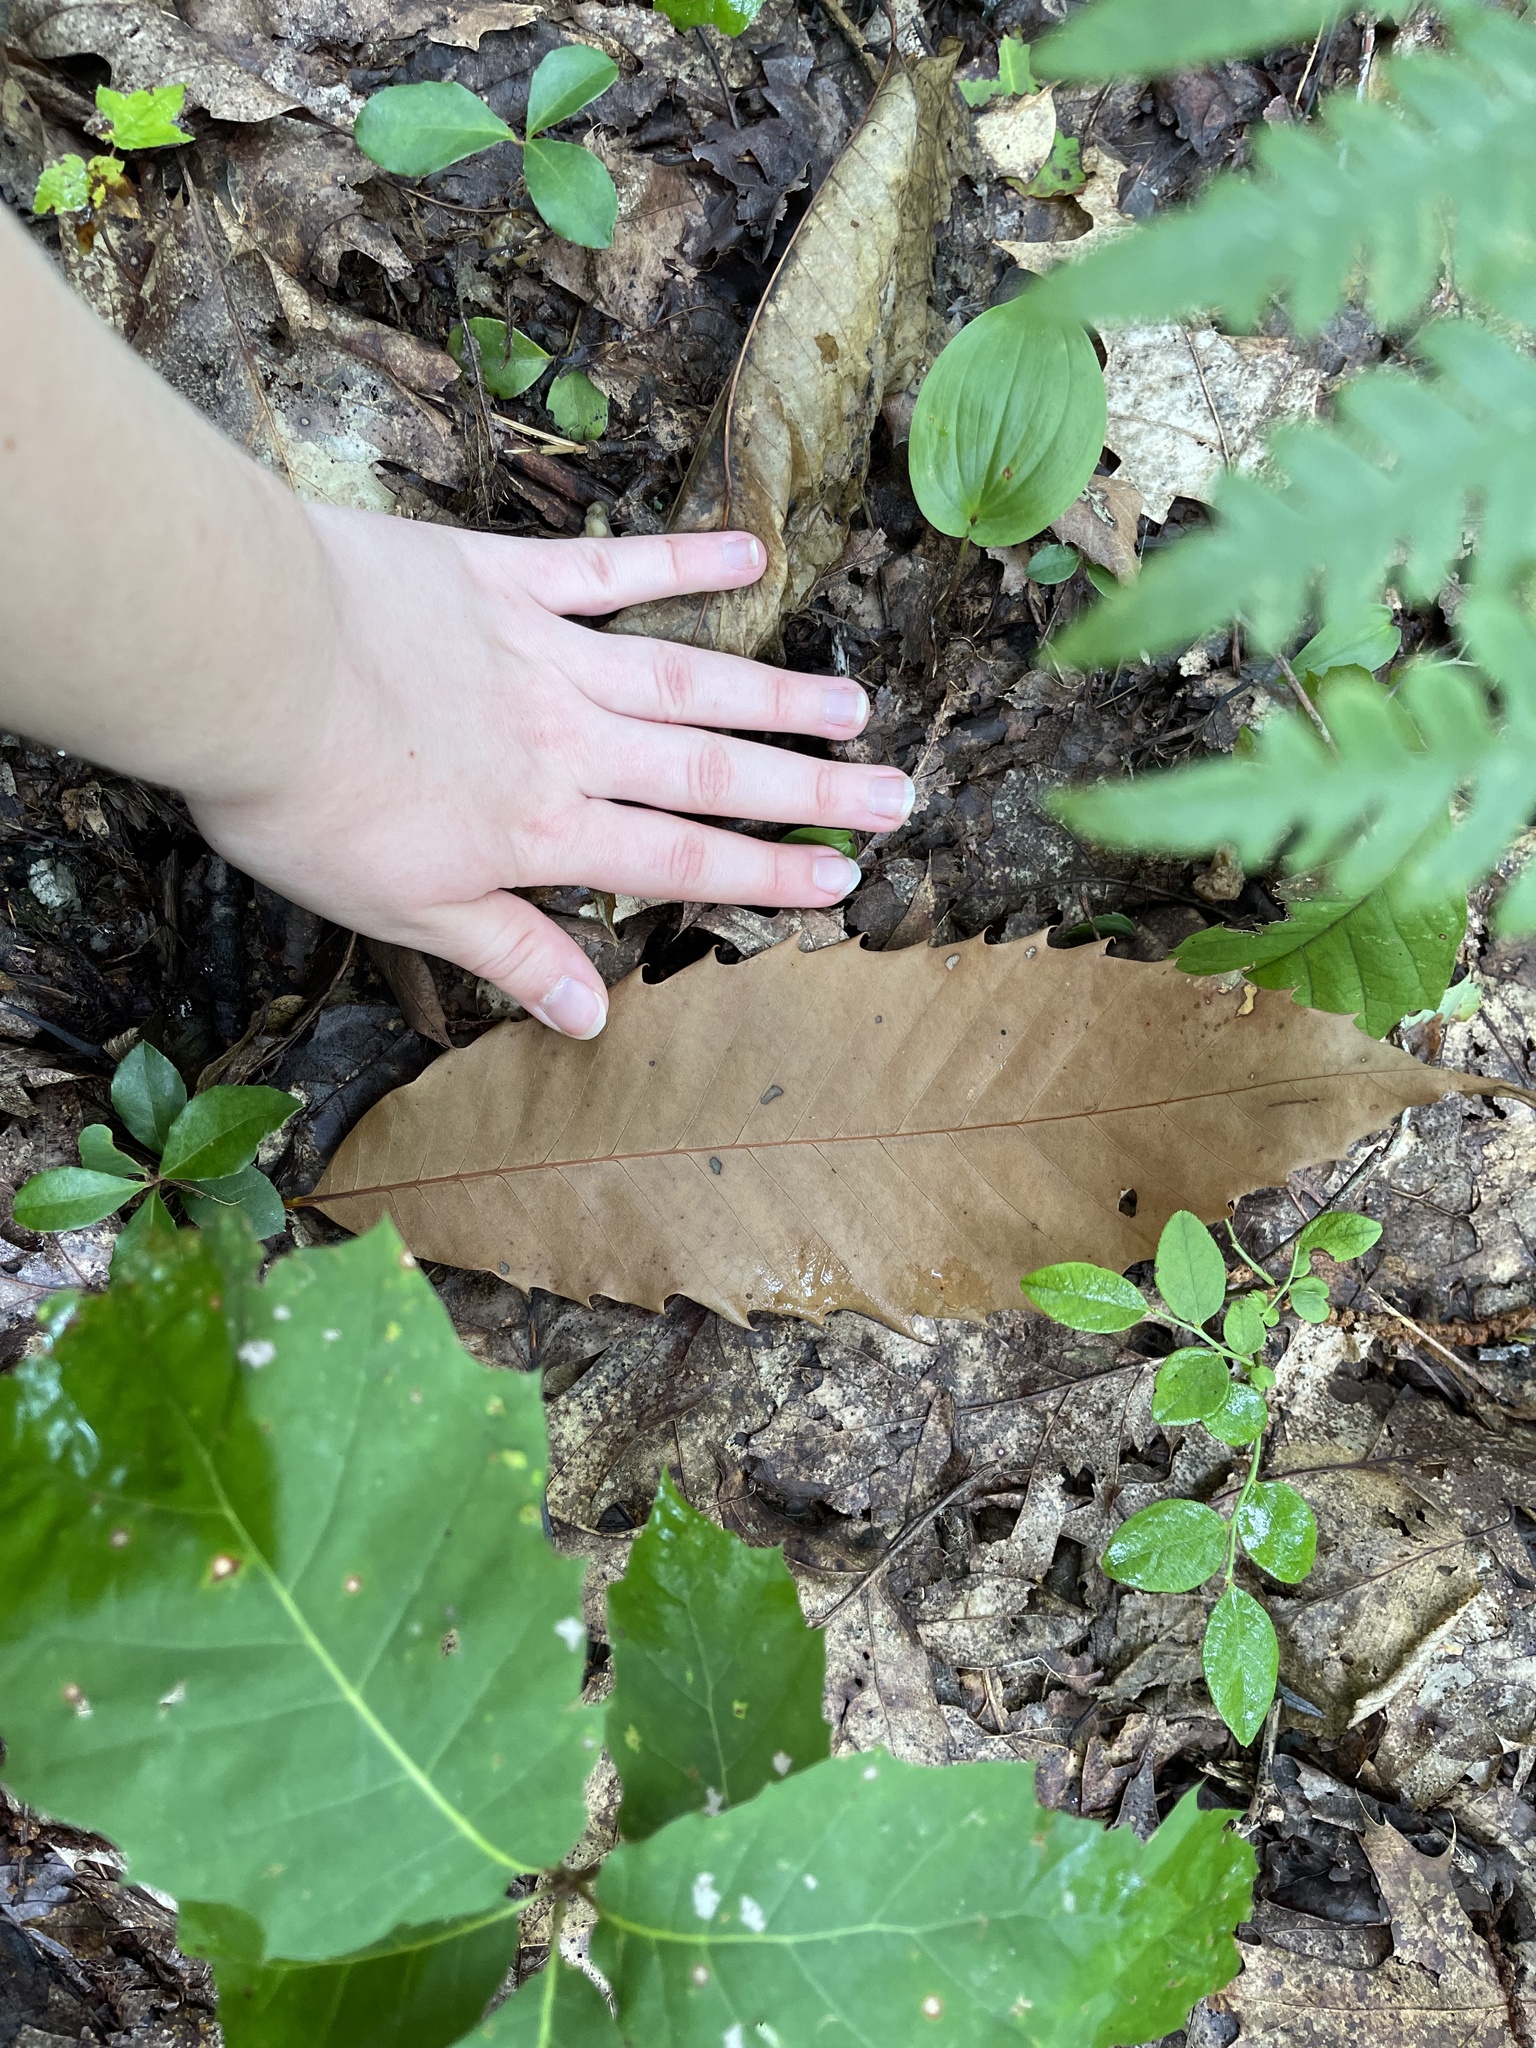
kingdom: Plantae
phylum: Tracheophyta
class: Magnoliopsida
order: Fagales
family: Fagaceae
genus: Castanea
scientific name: Castanea dentata
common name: American chestnut
